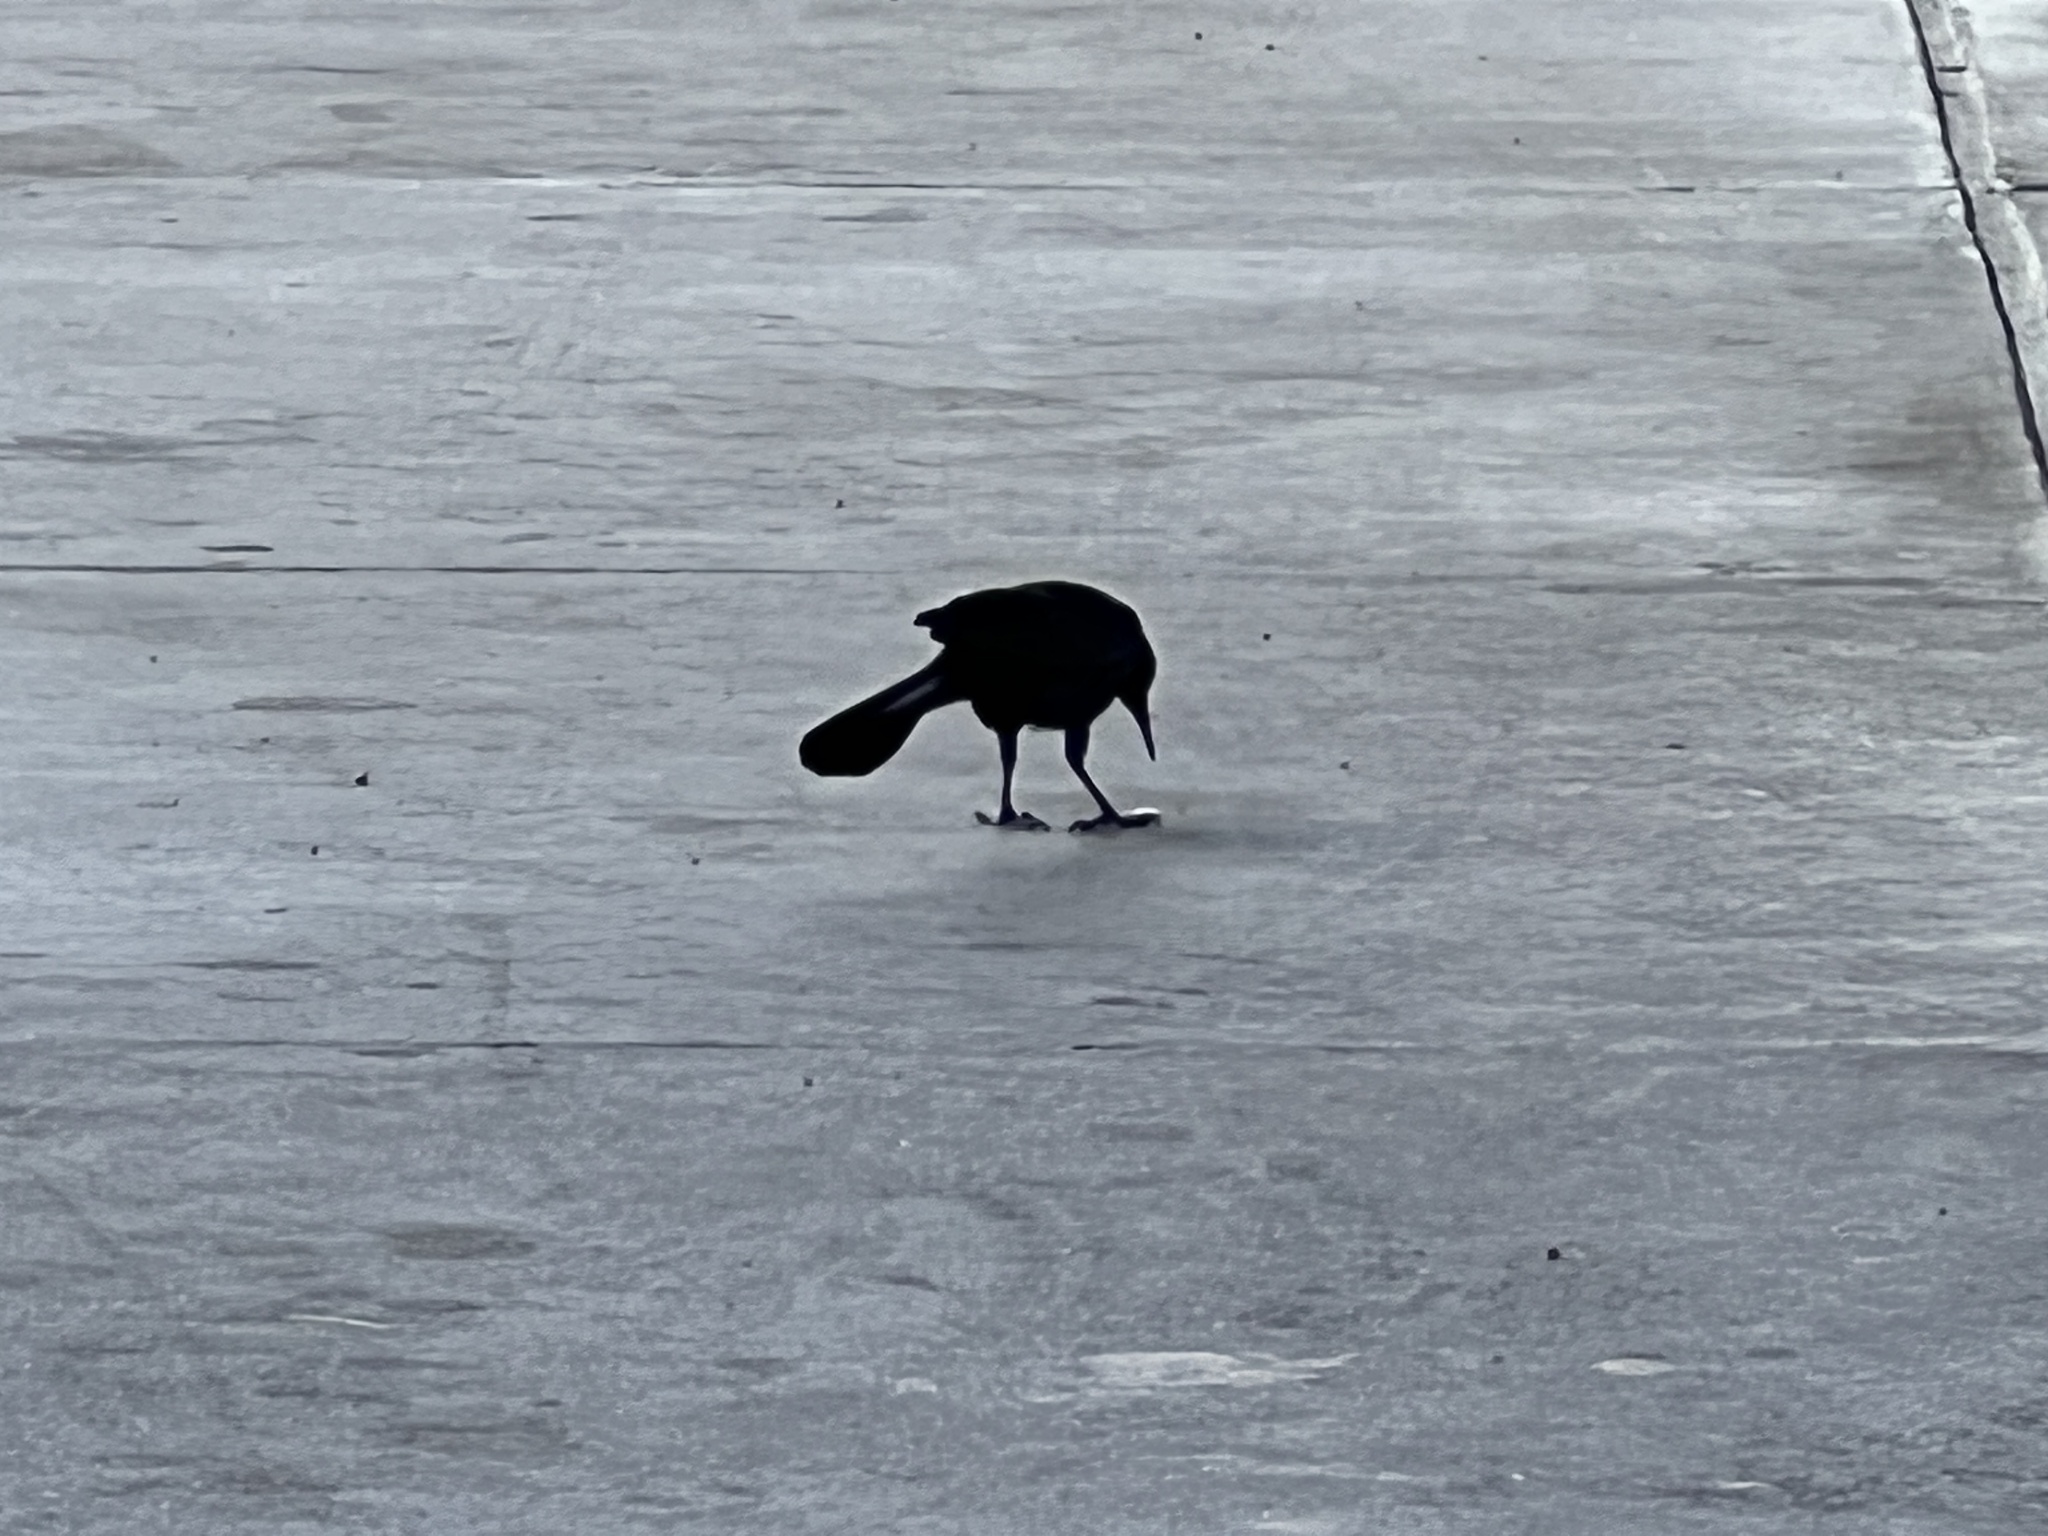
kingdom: Animalia
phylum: Chordata
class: Aves
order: Passeriformes
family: Icteridae
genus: Quiscalus
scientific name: Quiscalus mexicanus
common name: Great-tailed grackle
